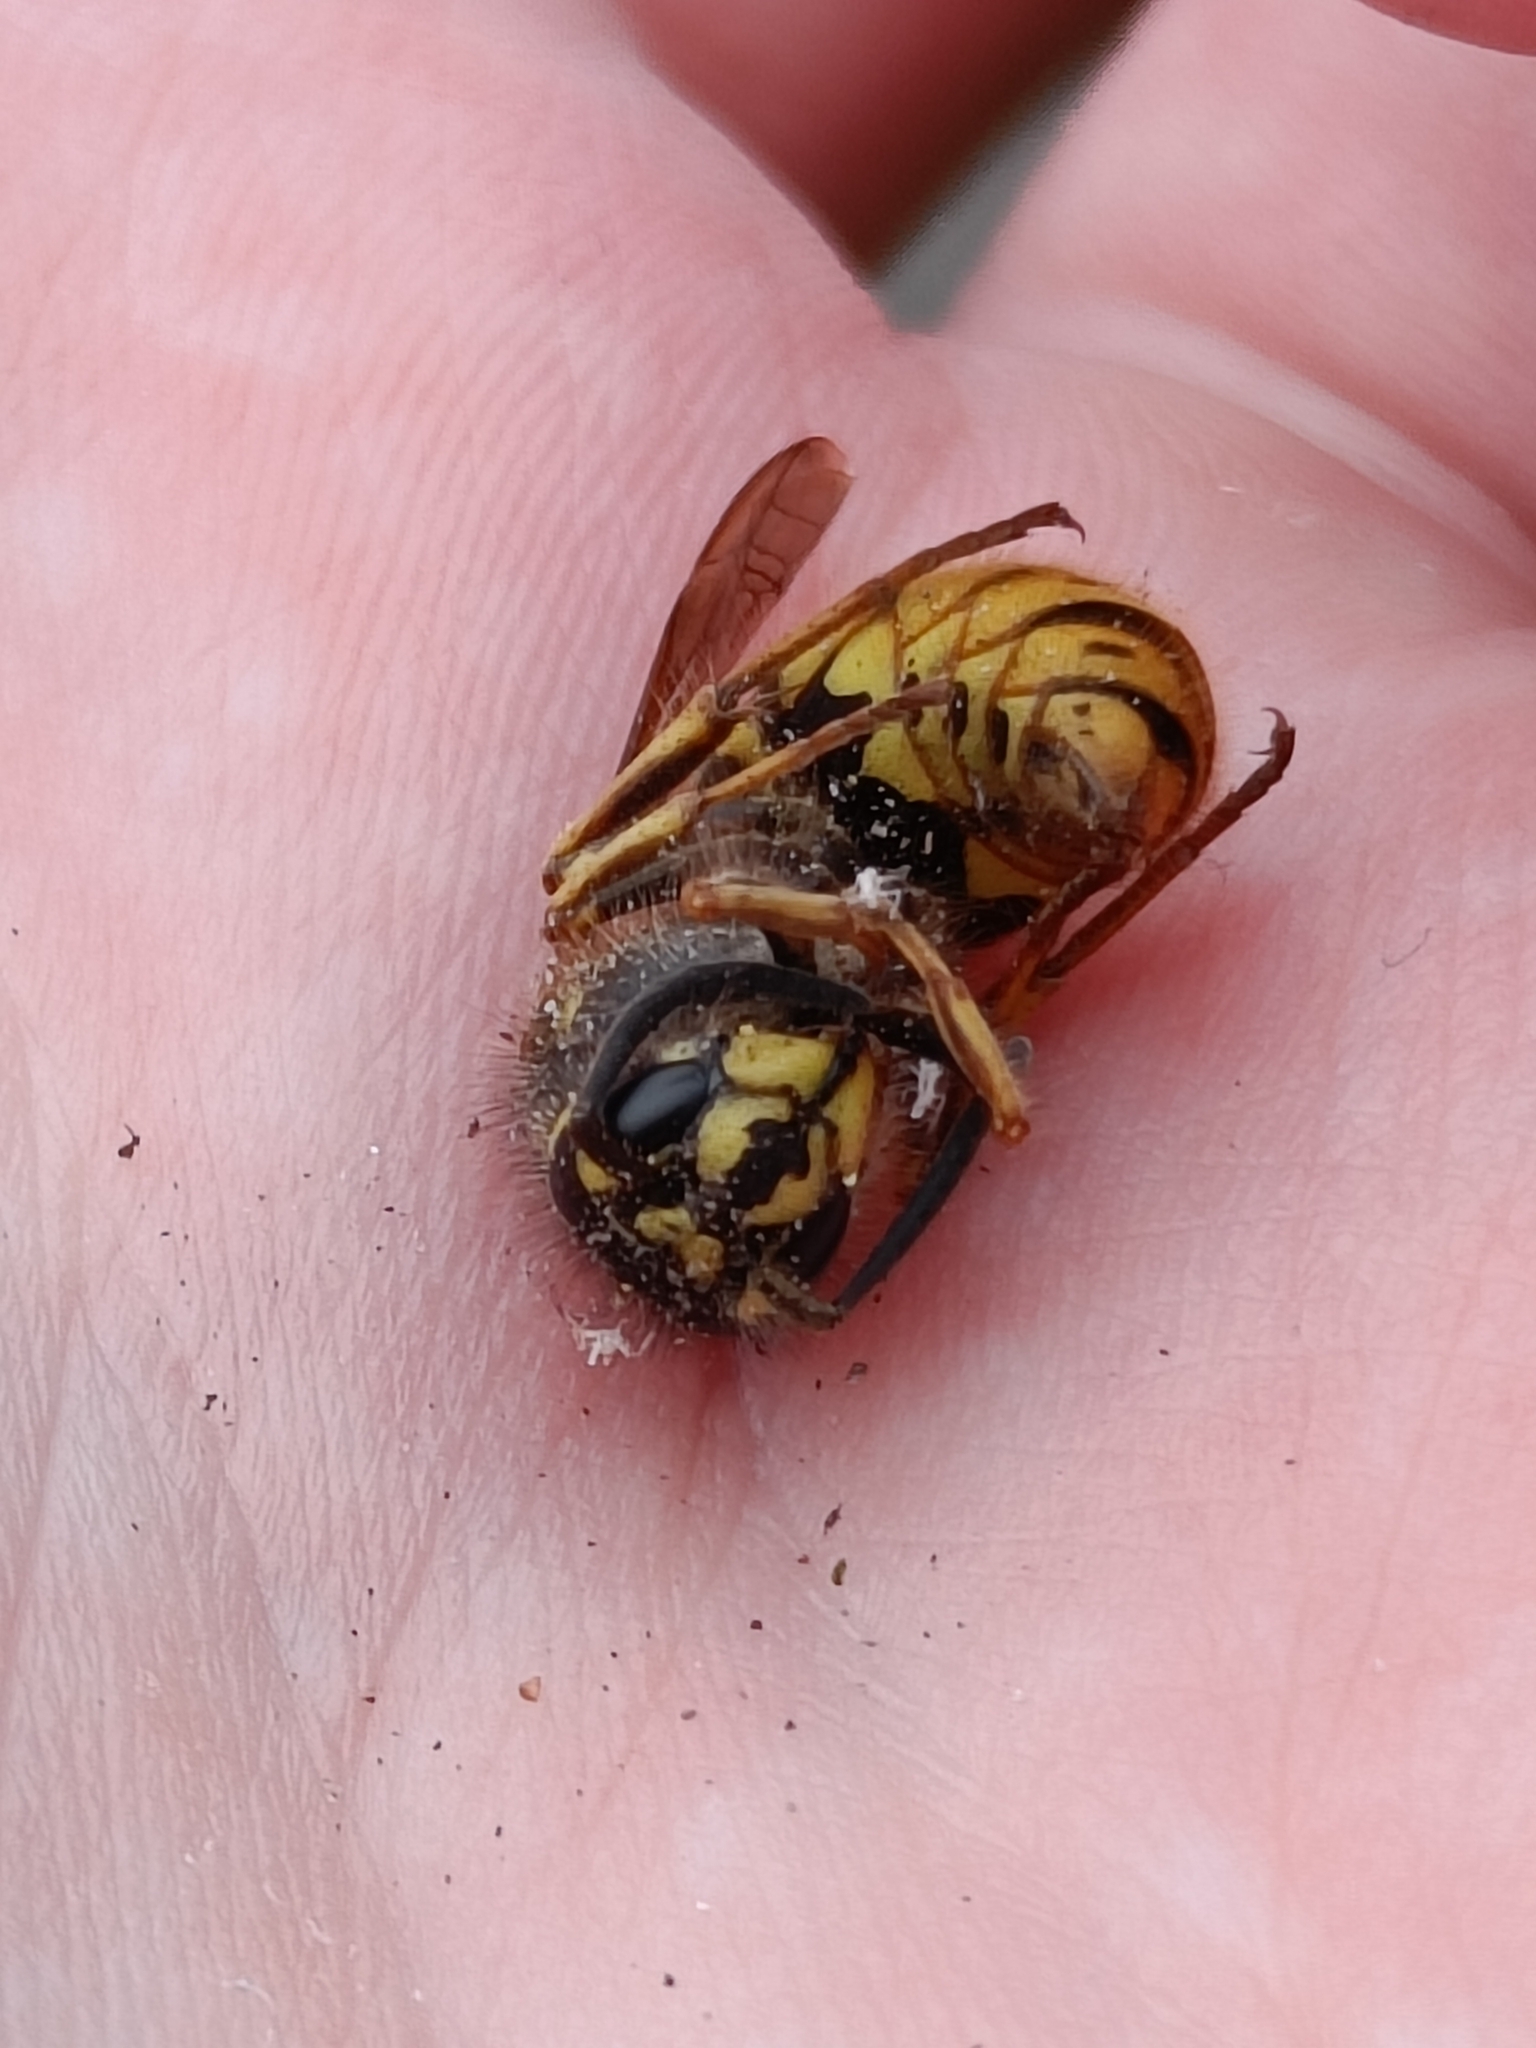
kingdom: Animalia
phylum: Arthropoda
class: Insecta
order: Hymenoptera
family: Vespidae
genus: Vespula
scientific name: Vespula vulgaris
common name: Common wasp
